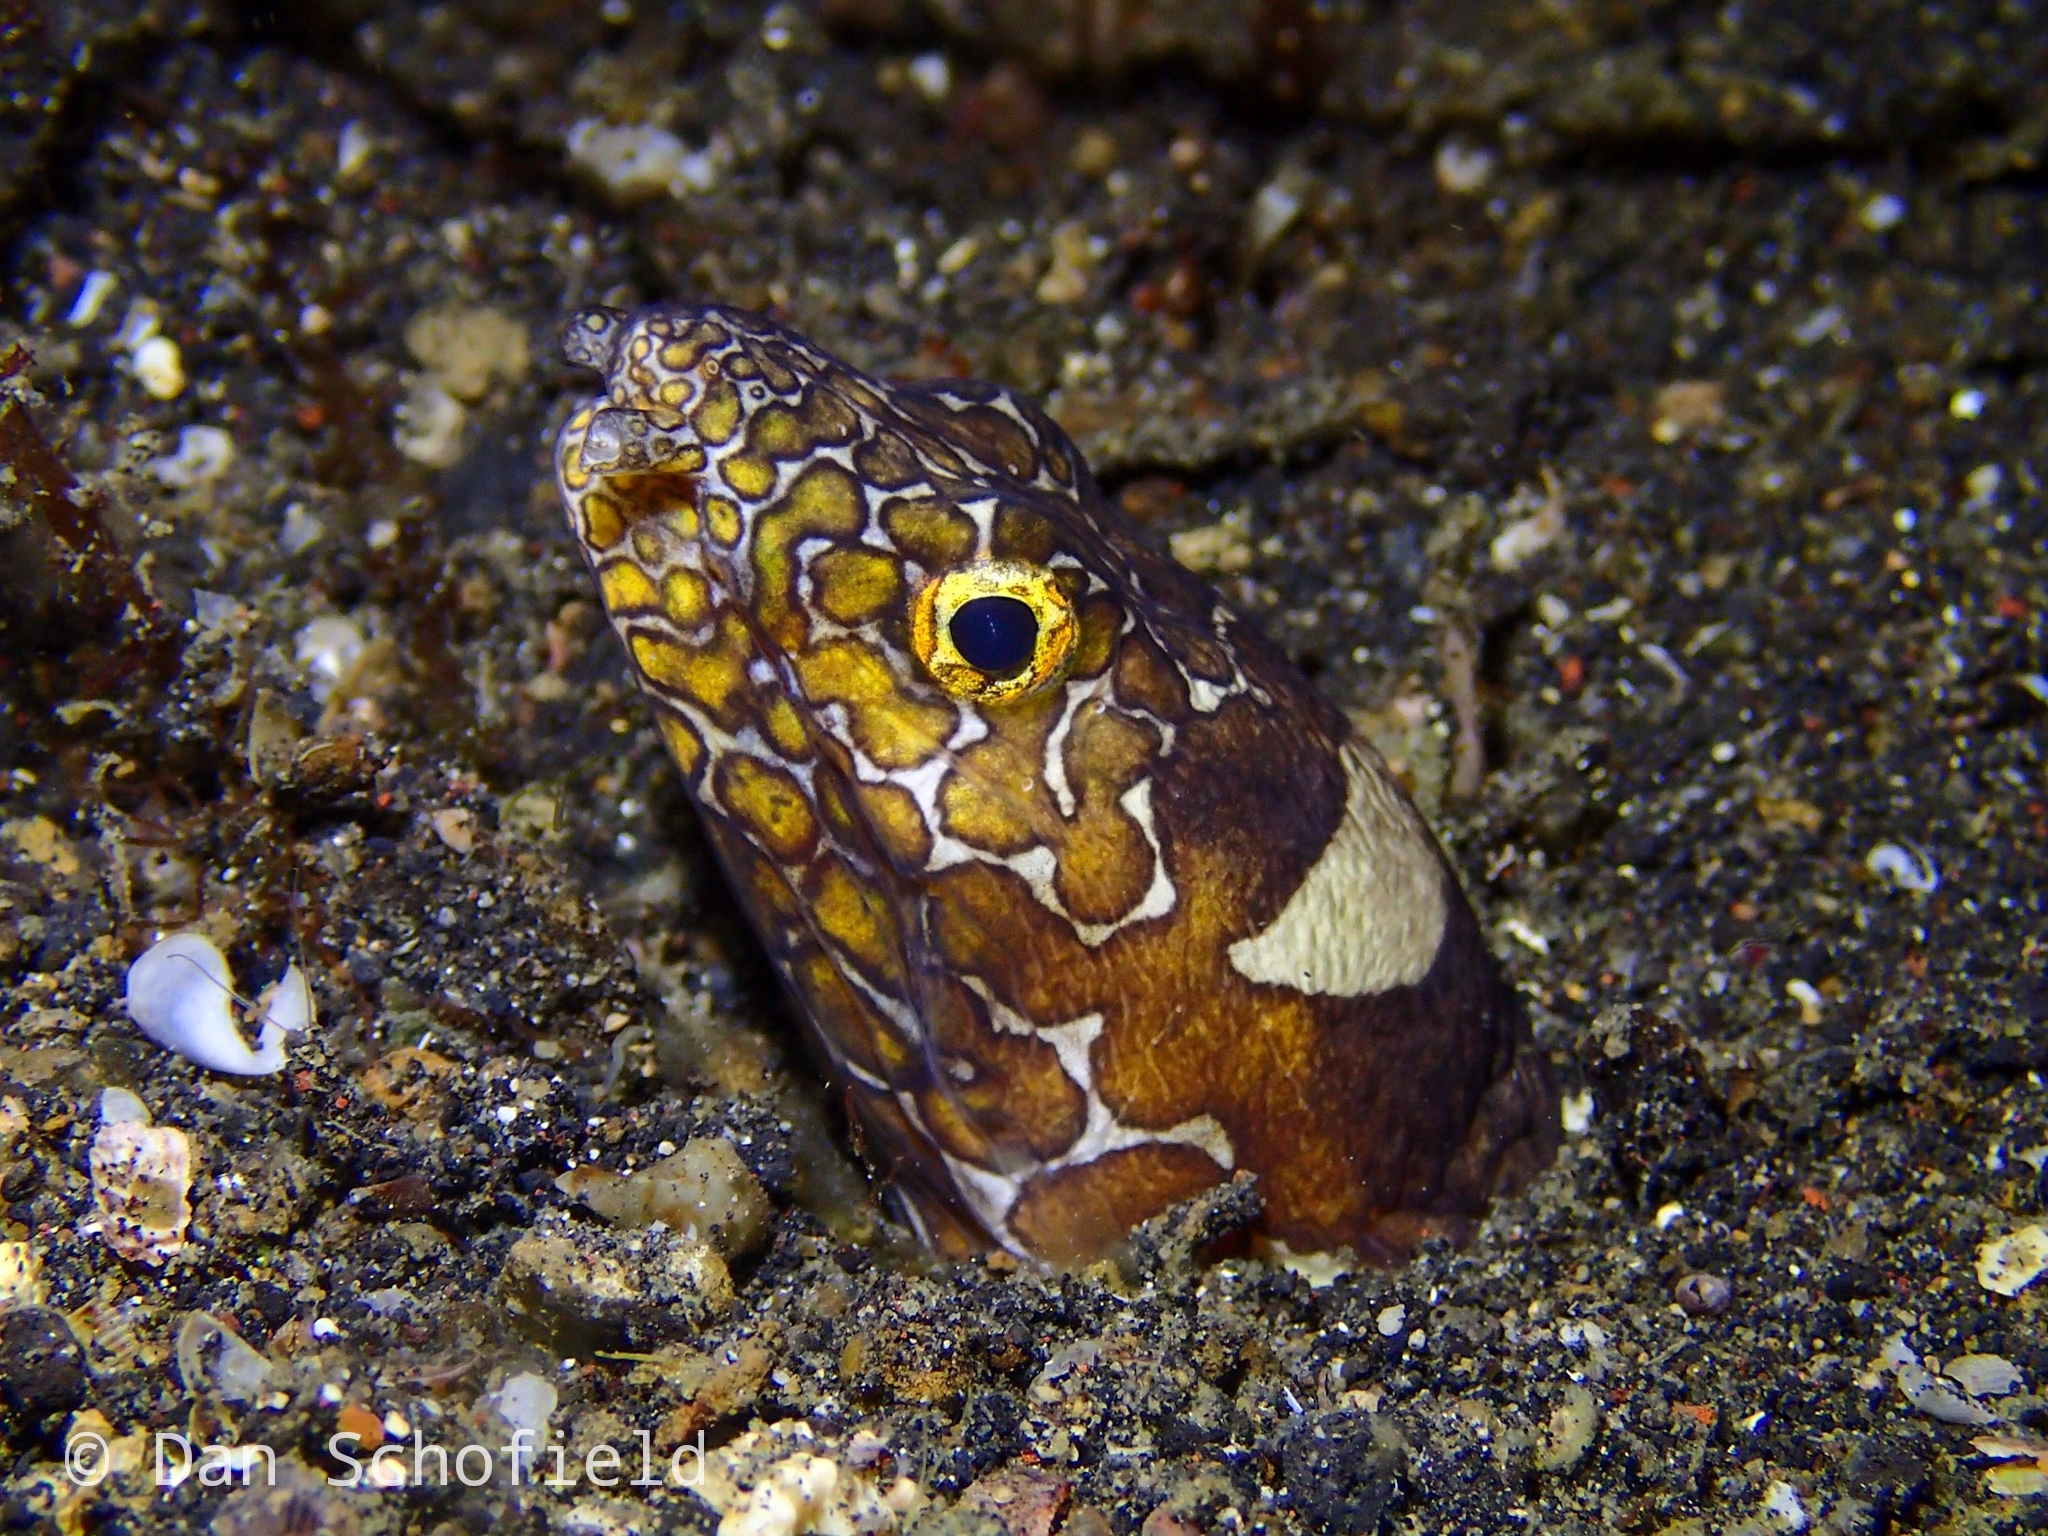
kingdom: Animalia
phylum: Chordata
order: Anguilliformes
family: Ophichthidae
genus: Ophichthus
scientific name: Ophichthus bonaparti
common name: Napoleon snake eel
